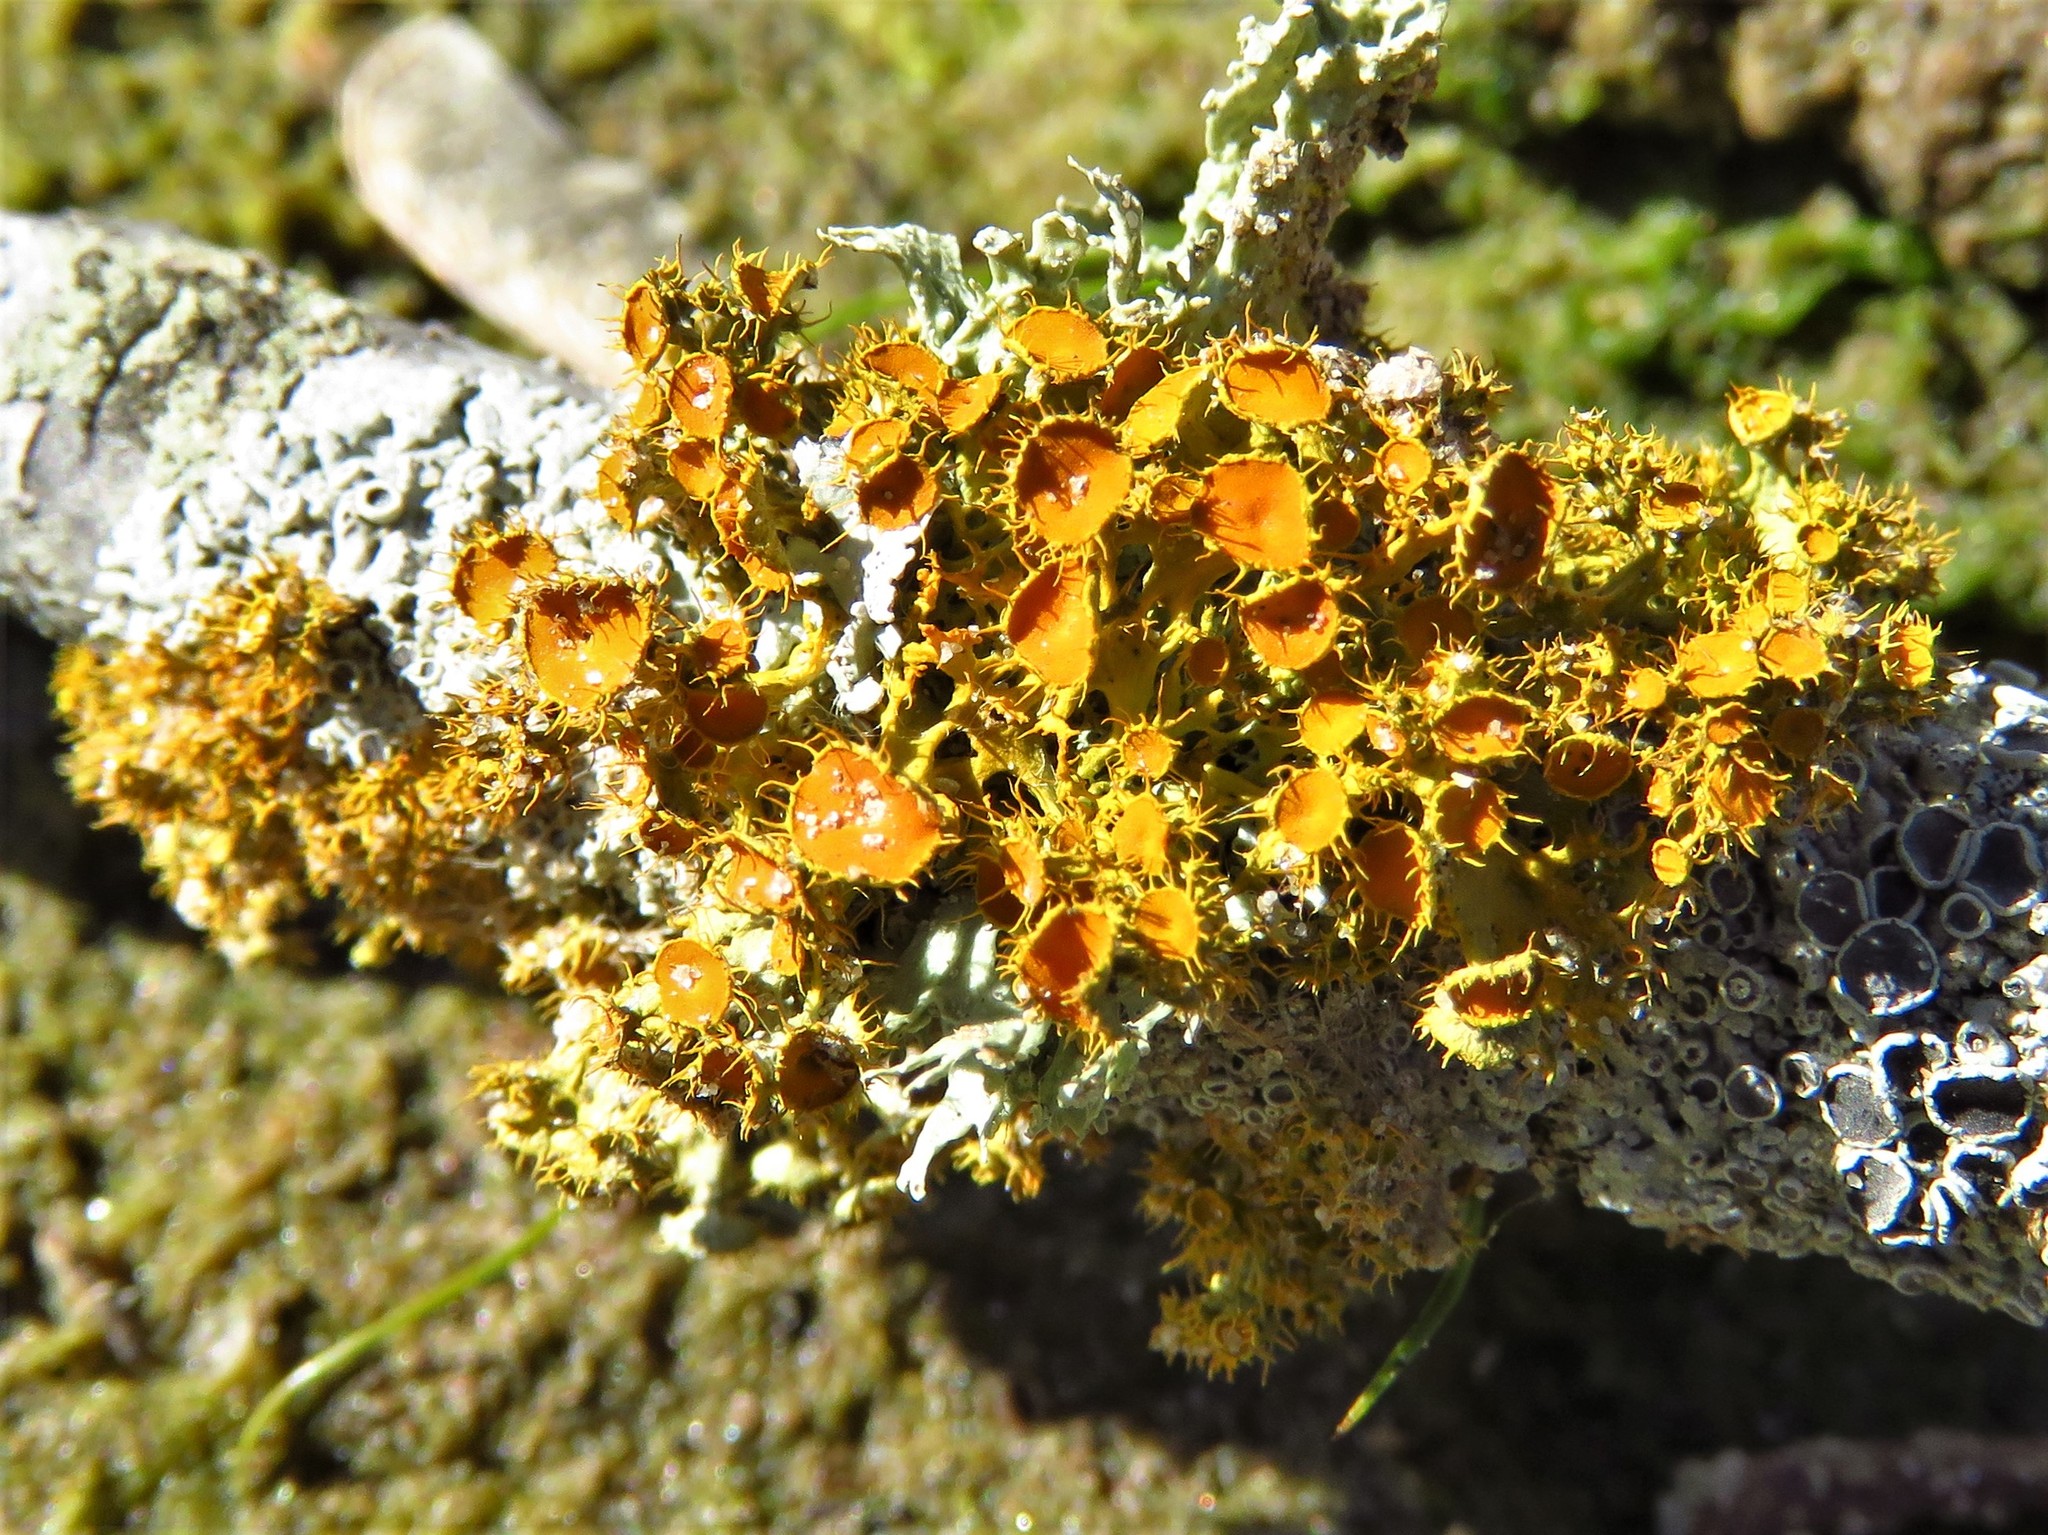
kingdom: Fungi
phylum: Ascomycota
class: Lecanoromycetes
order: Teloschistales
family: Teloschistaceae
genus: Niorma
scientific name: Niorma chrysophthalma
